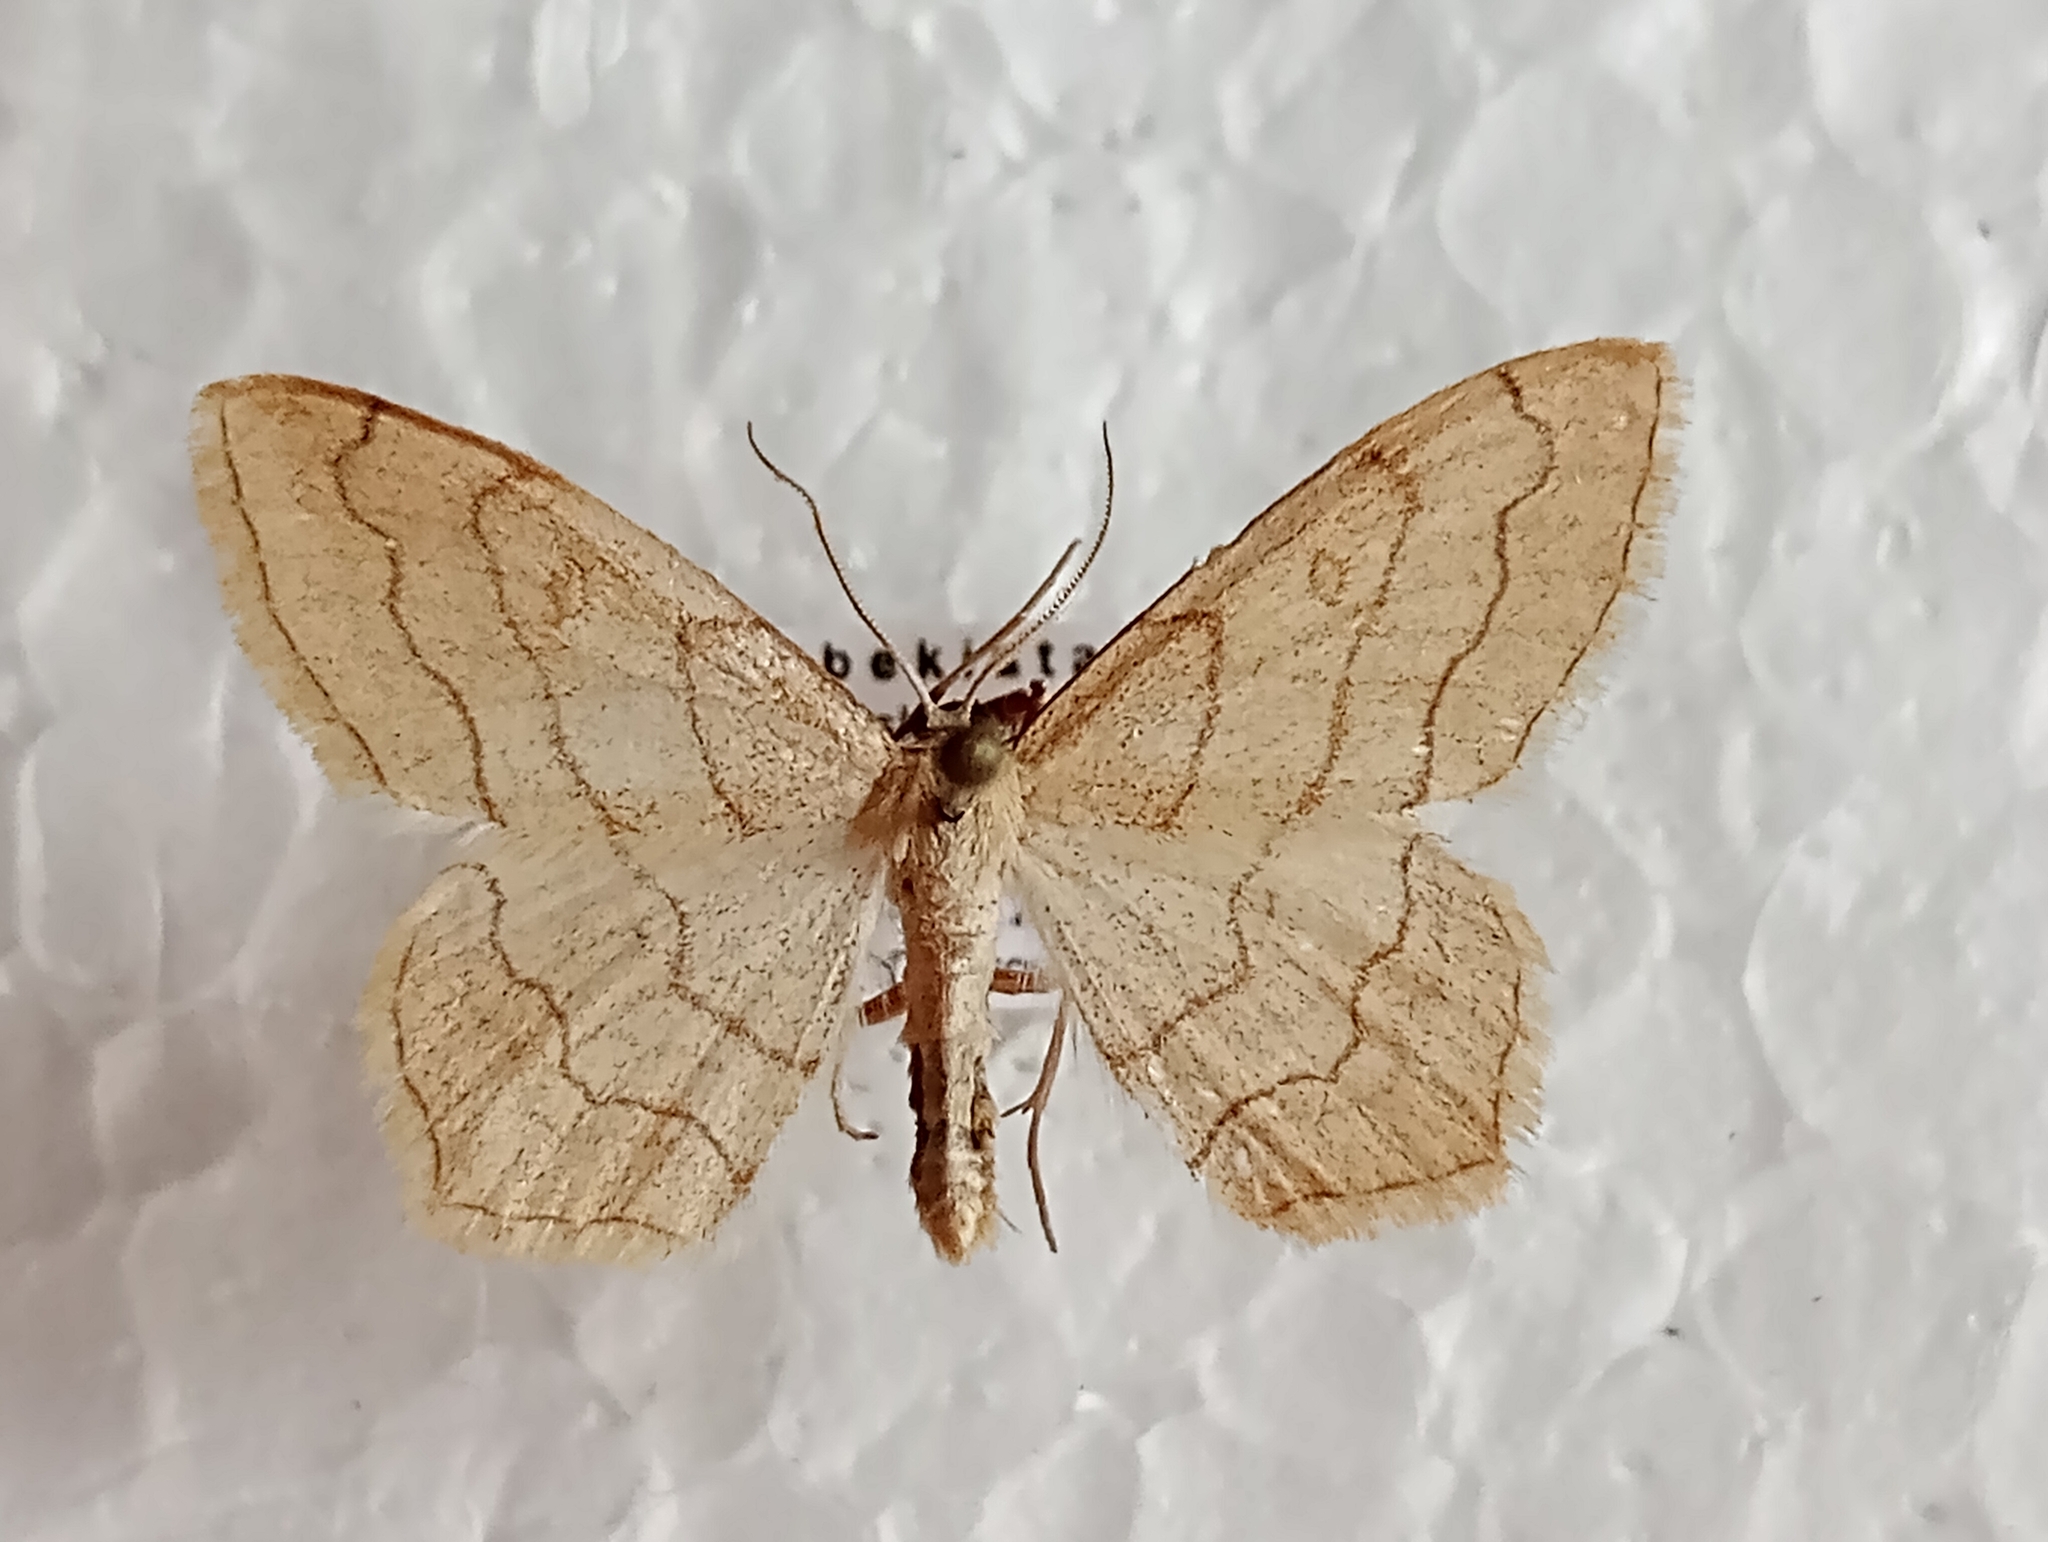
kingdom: Animalia
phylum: Arthropoda
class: Insecta
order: Lepidoptera
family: Geometridae
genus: Scopula
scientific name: Scopula ansulata
